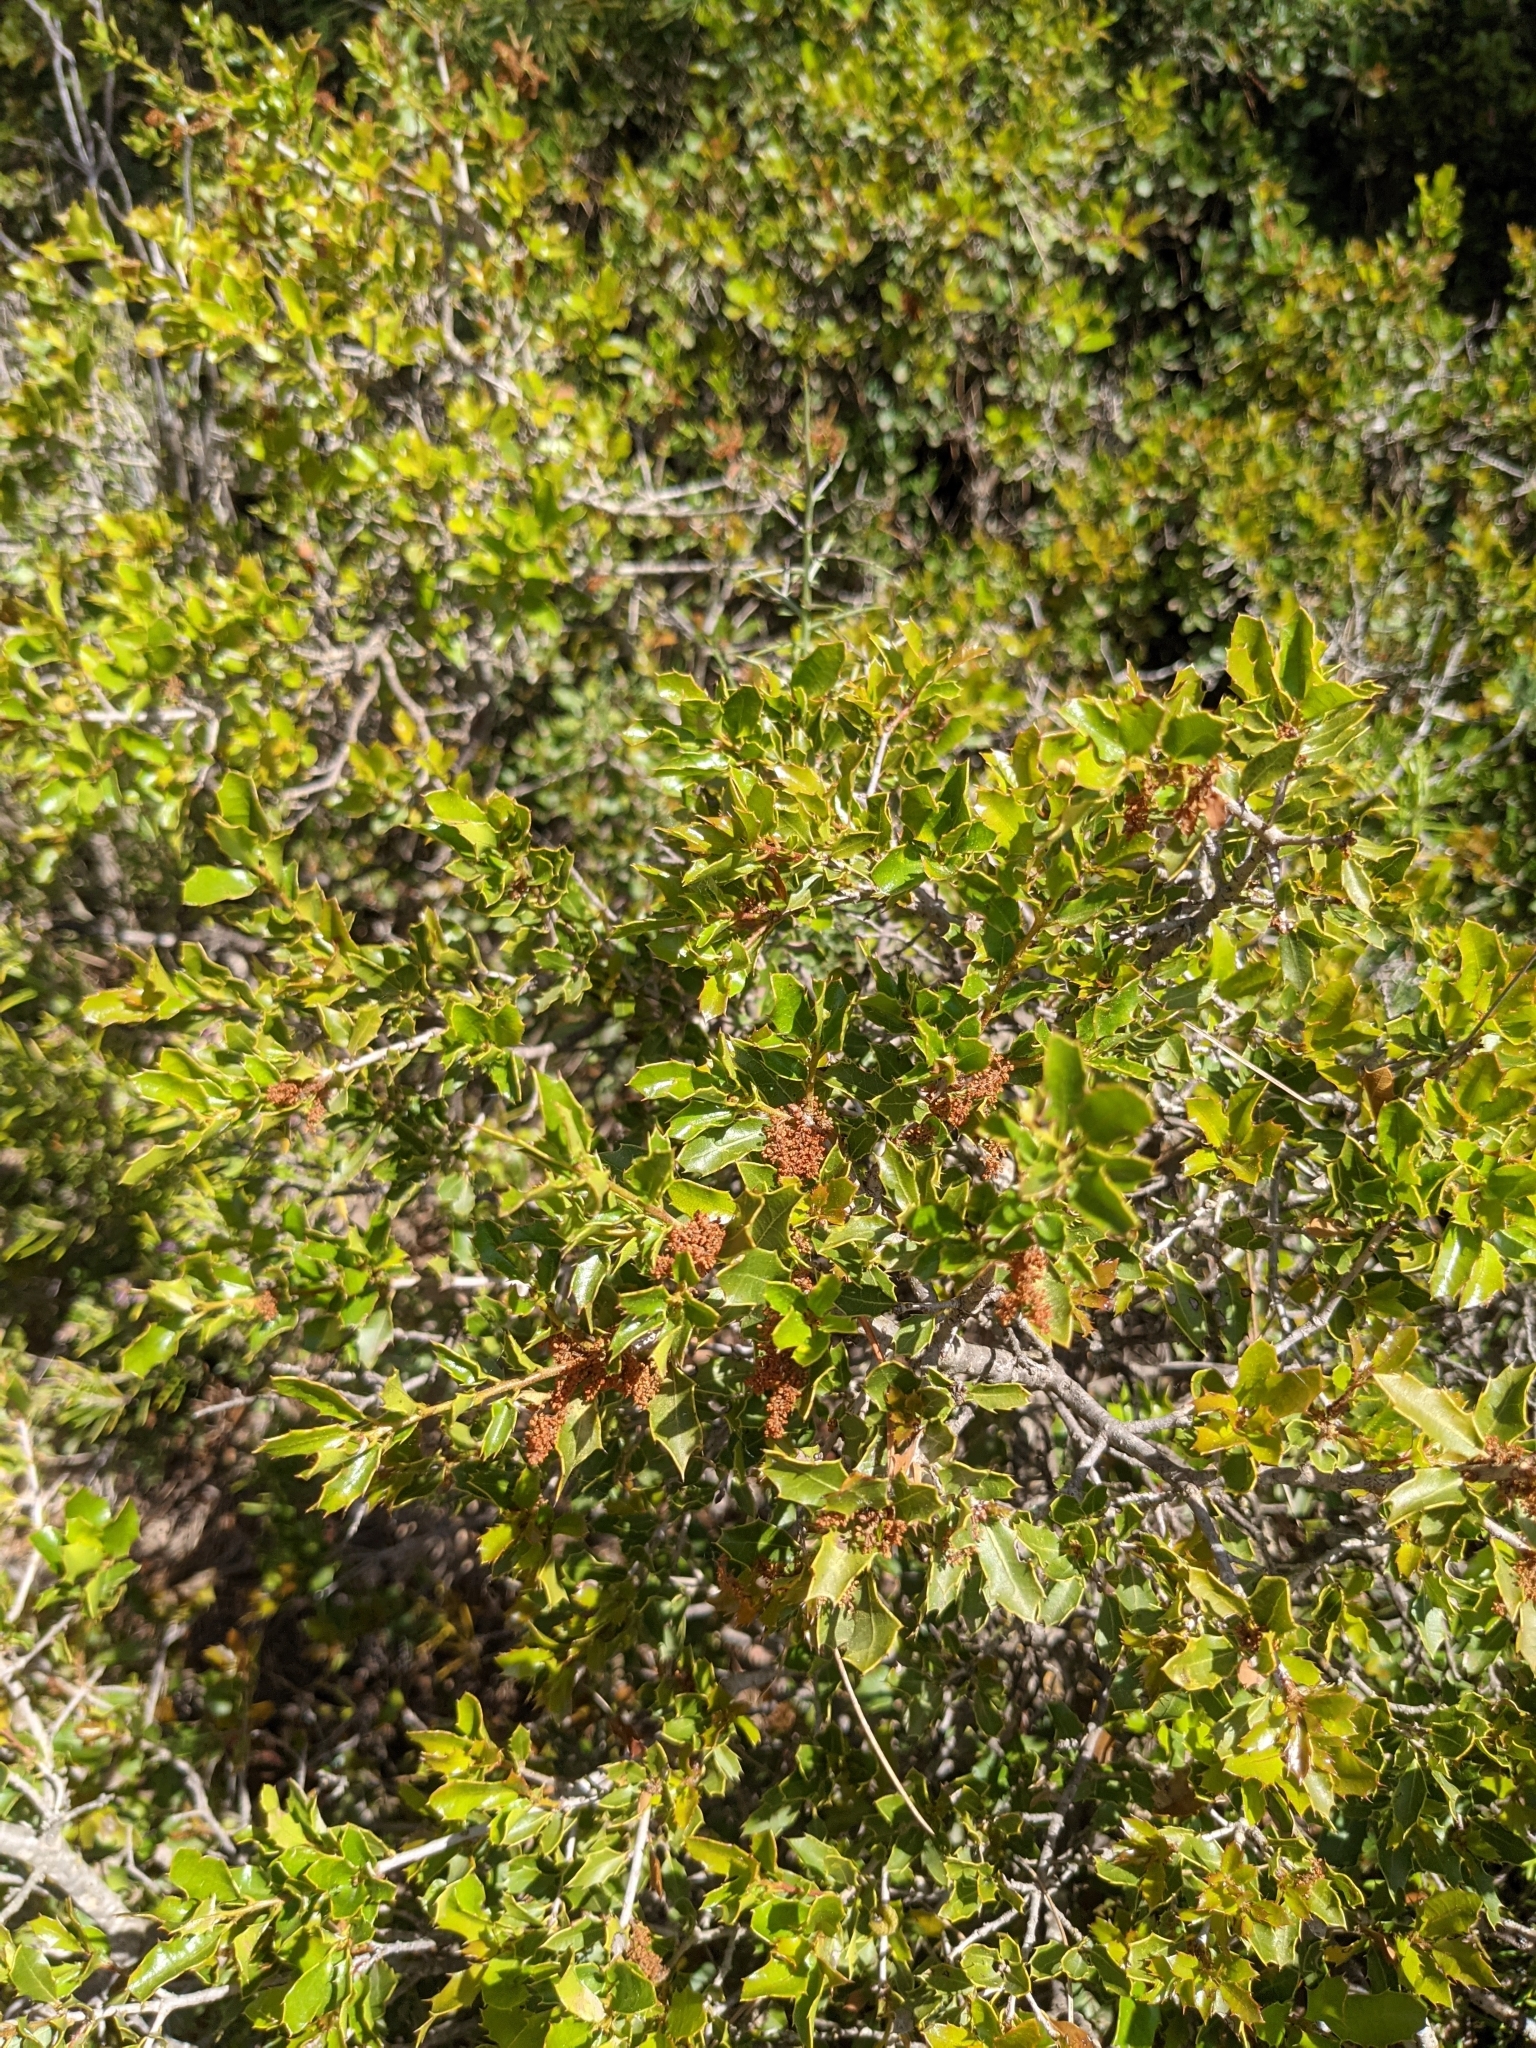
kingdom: Plantae
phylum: Tracheophyta
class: Magnoliopsida
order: Fagales
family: Fagaceae
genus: Quercus
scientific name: Quercus coccifera
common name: Kermes oak
